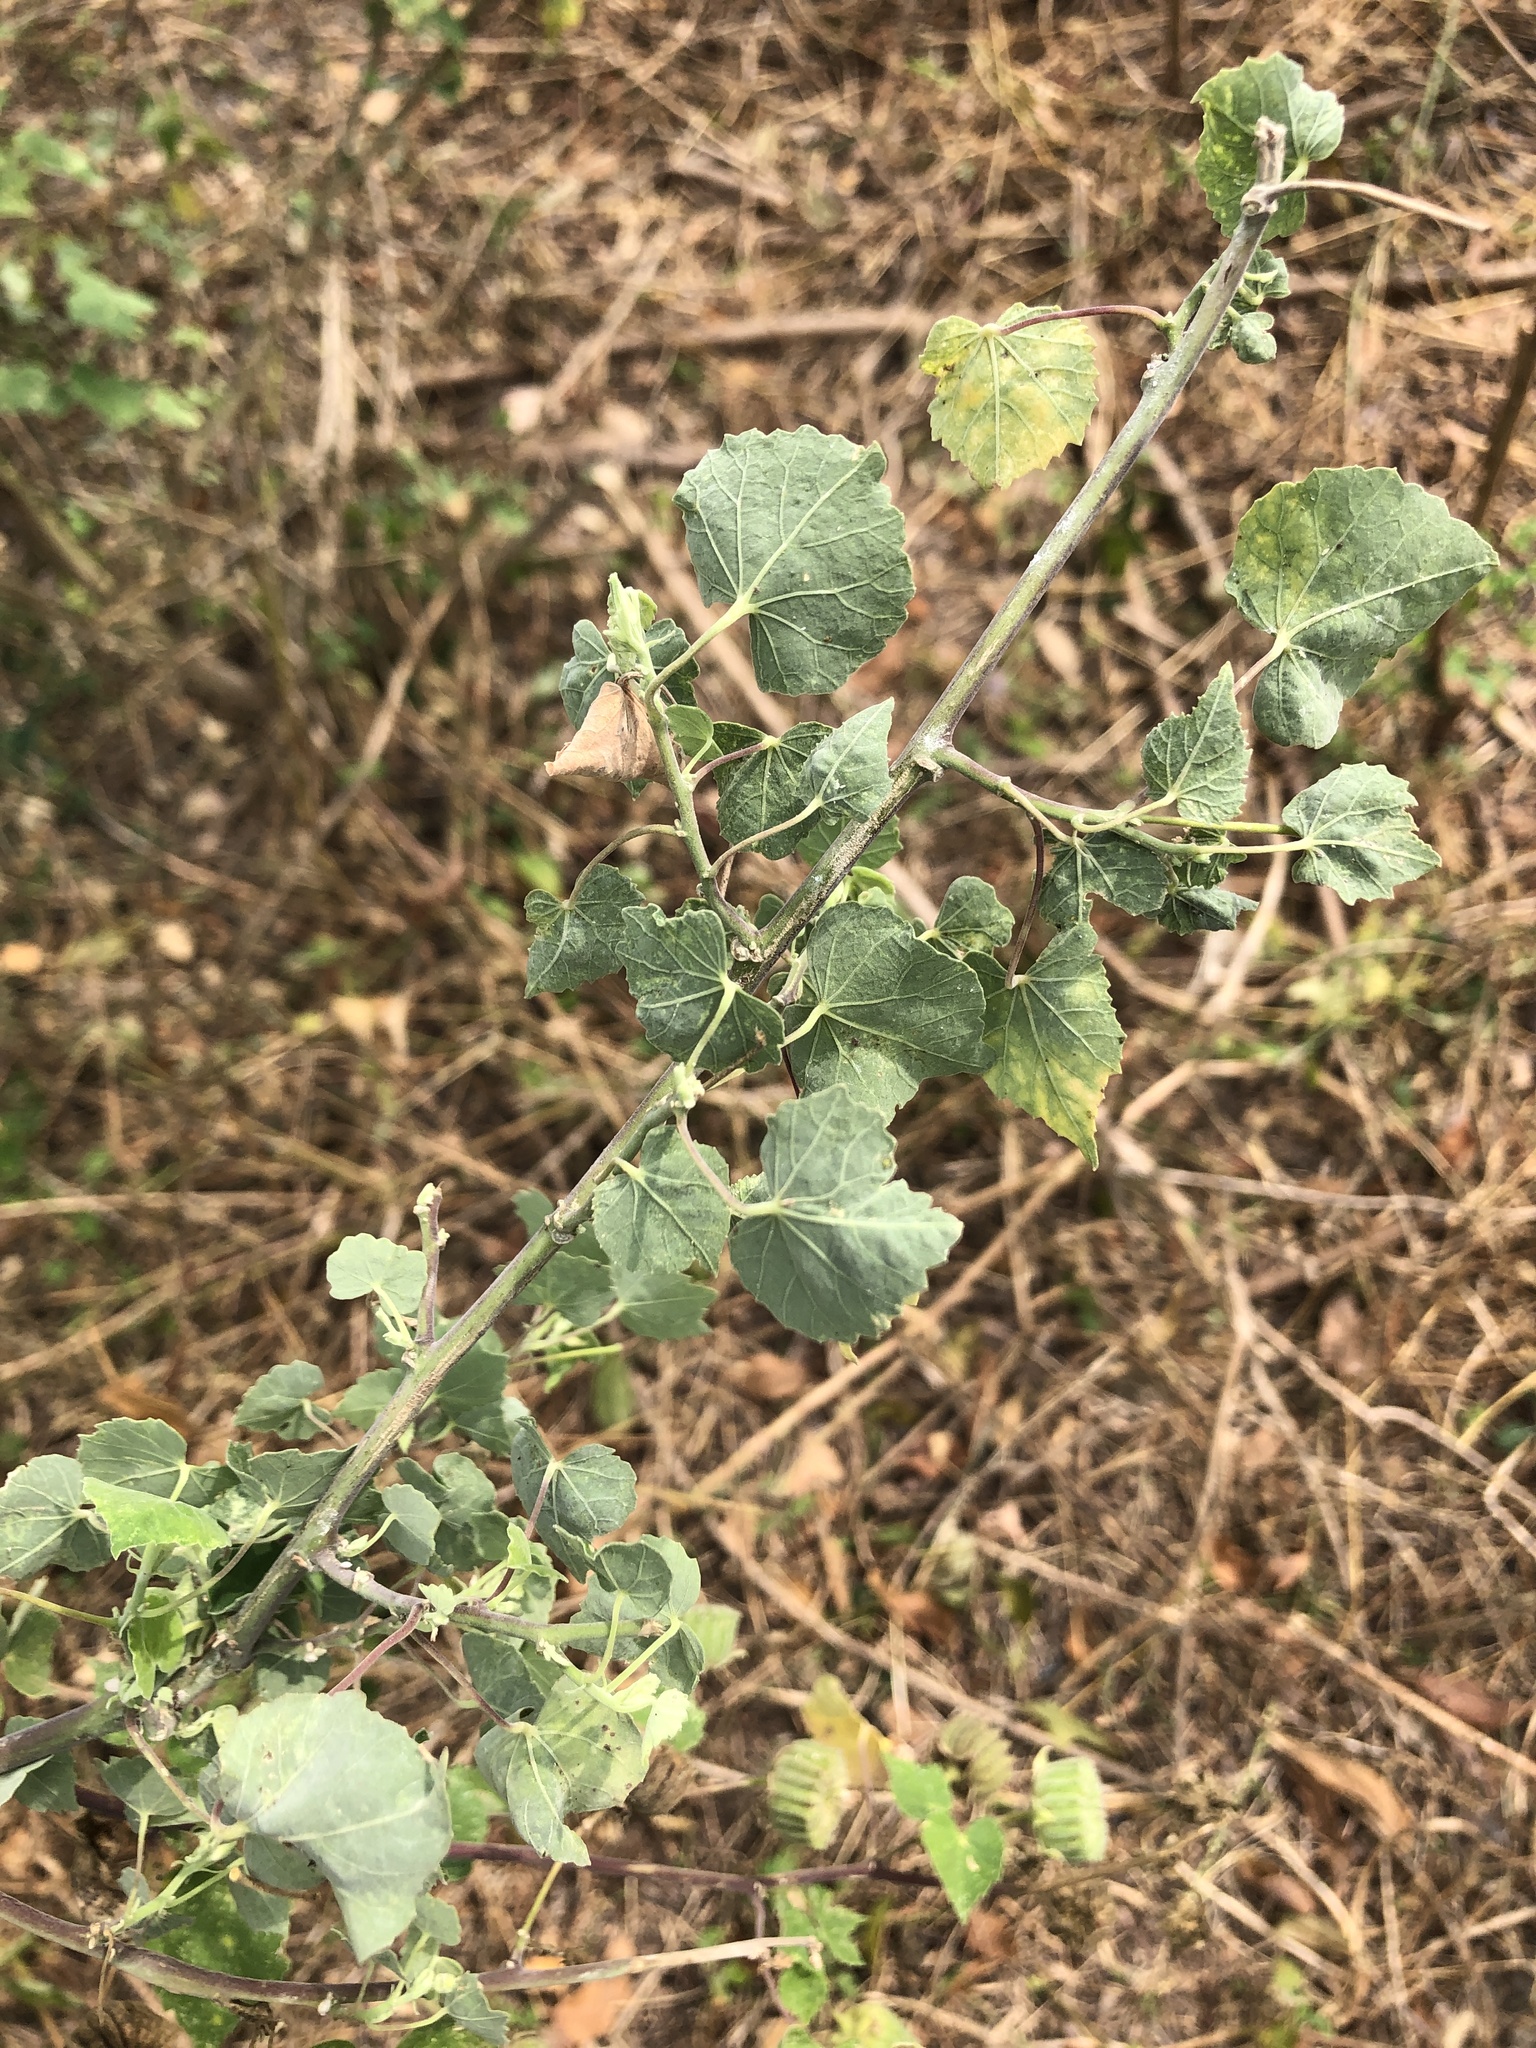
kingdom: Plantae
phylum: Tracheophyta
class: Magnoliopsida
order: Malvales
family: Malvaceae
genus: Abutilon
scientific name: Abutilon indicum
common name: Indian abutilon
